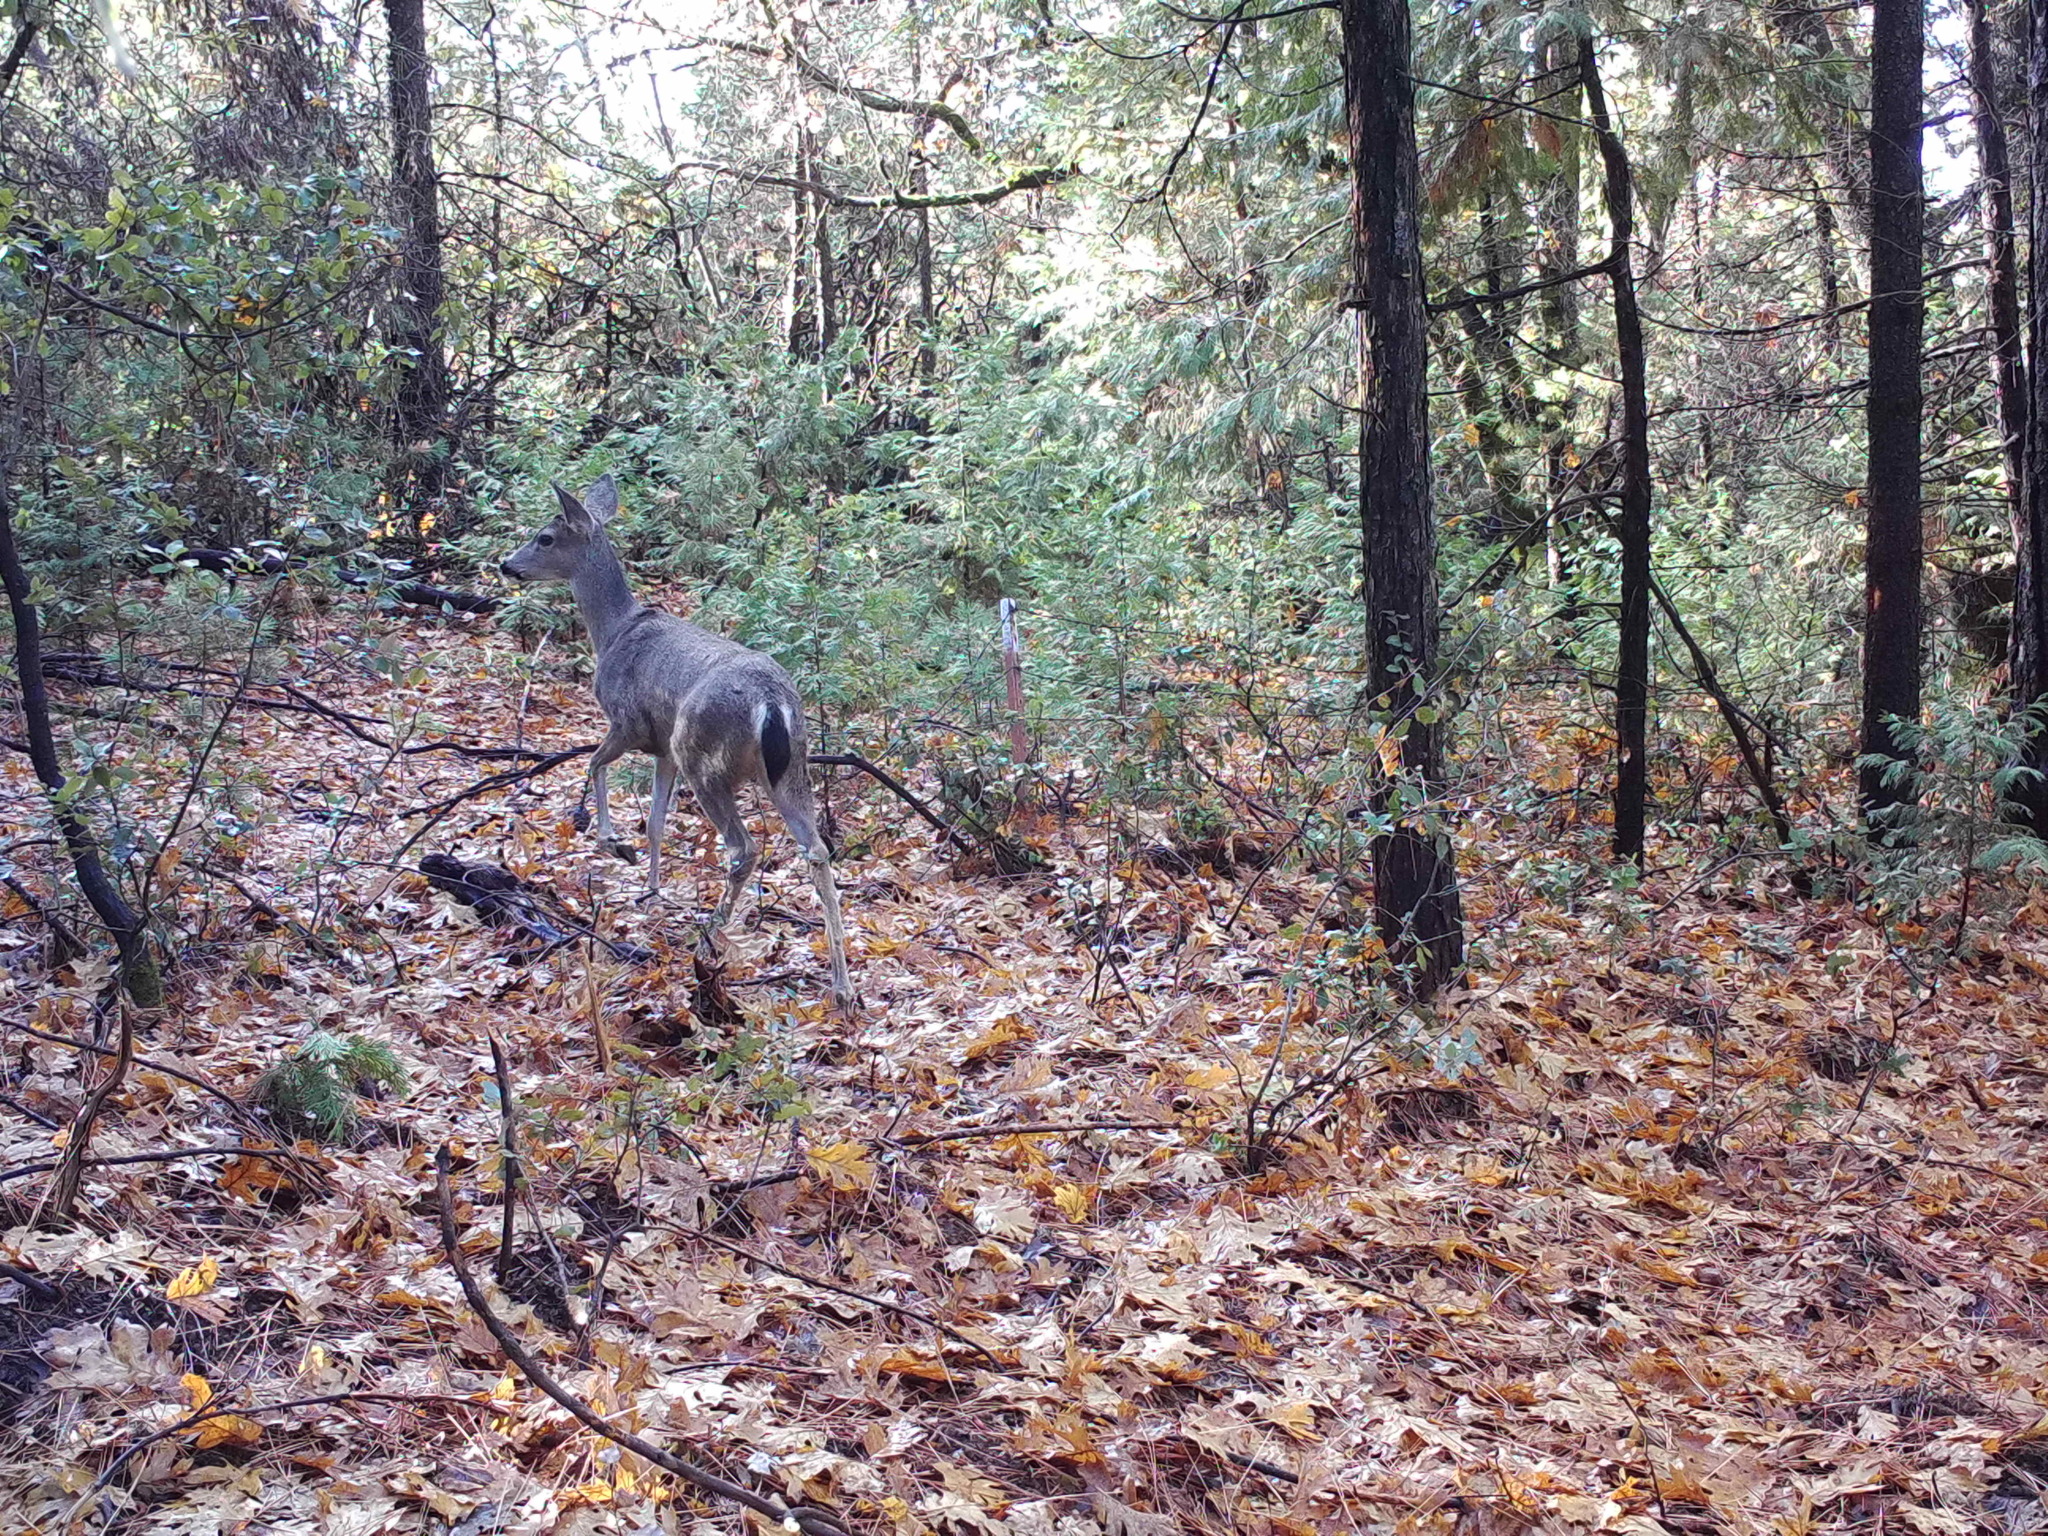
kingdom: Animalia
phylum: Chordata
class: Mammalia
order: Artiodactyla
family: Cervidae
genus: Odocoileus
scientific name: Odocoileus hemionus
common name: Mule deer
